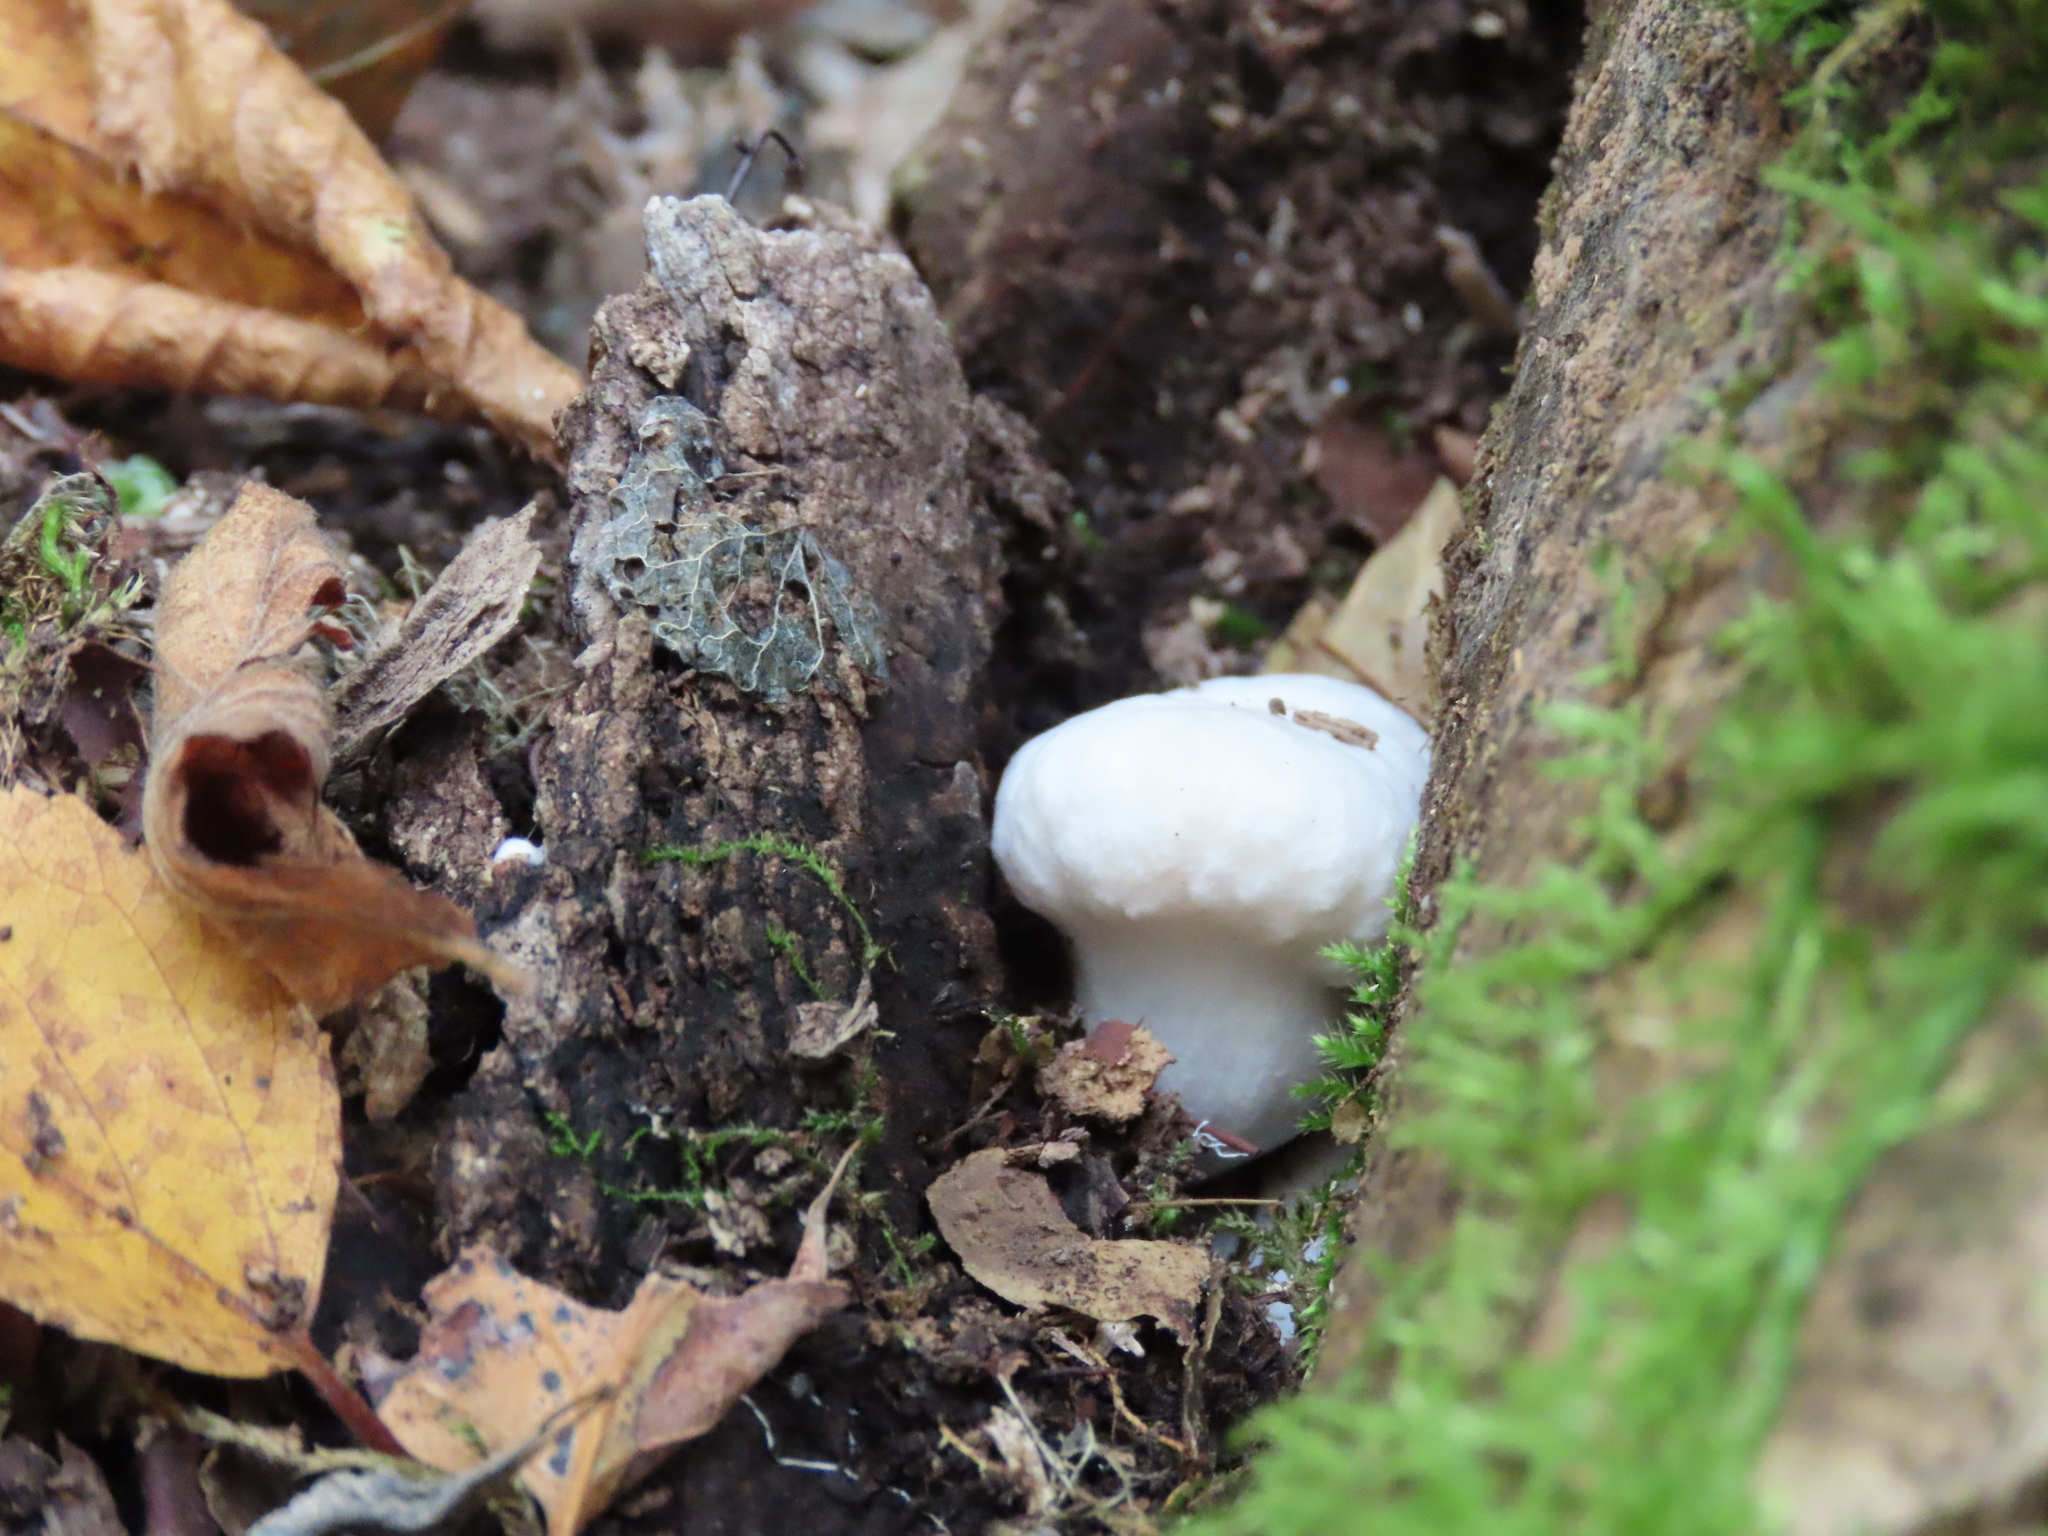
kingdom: Fungi
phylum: Basidiomycota
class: Agaricomycetes
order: Agaricales
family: Entolomataceae
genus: Entoloma
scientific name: Entoloma abortivum
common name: Aborted entoloma
